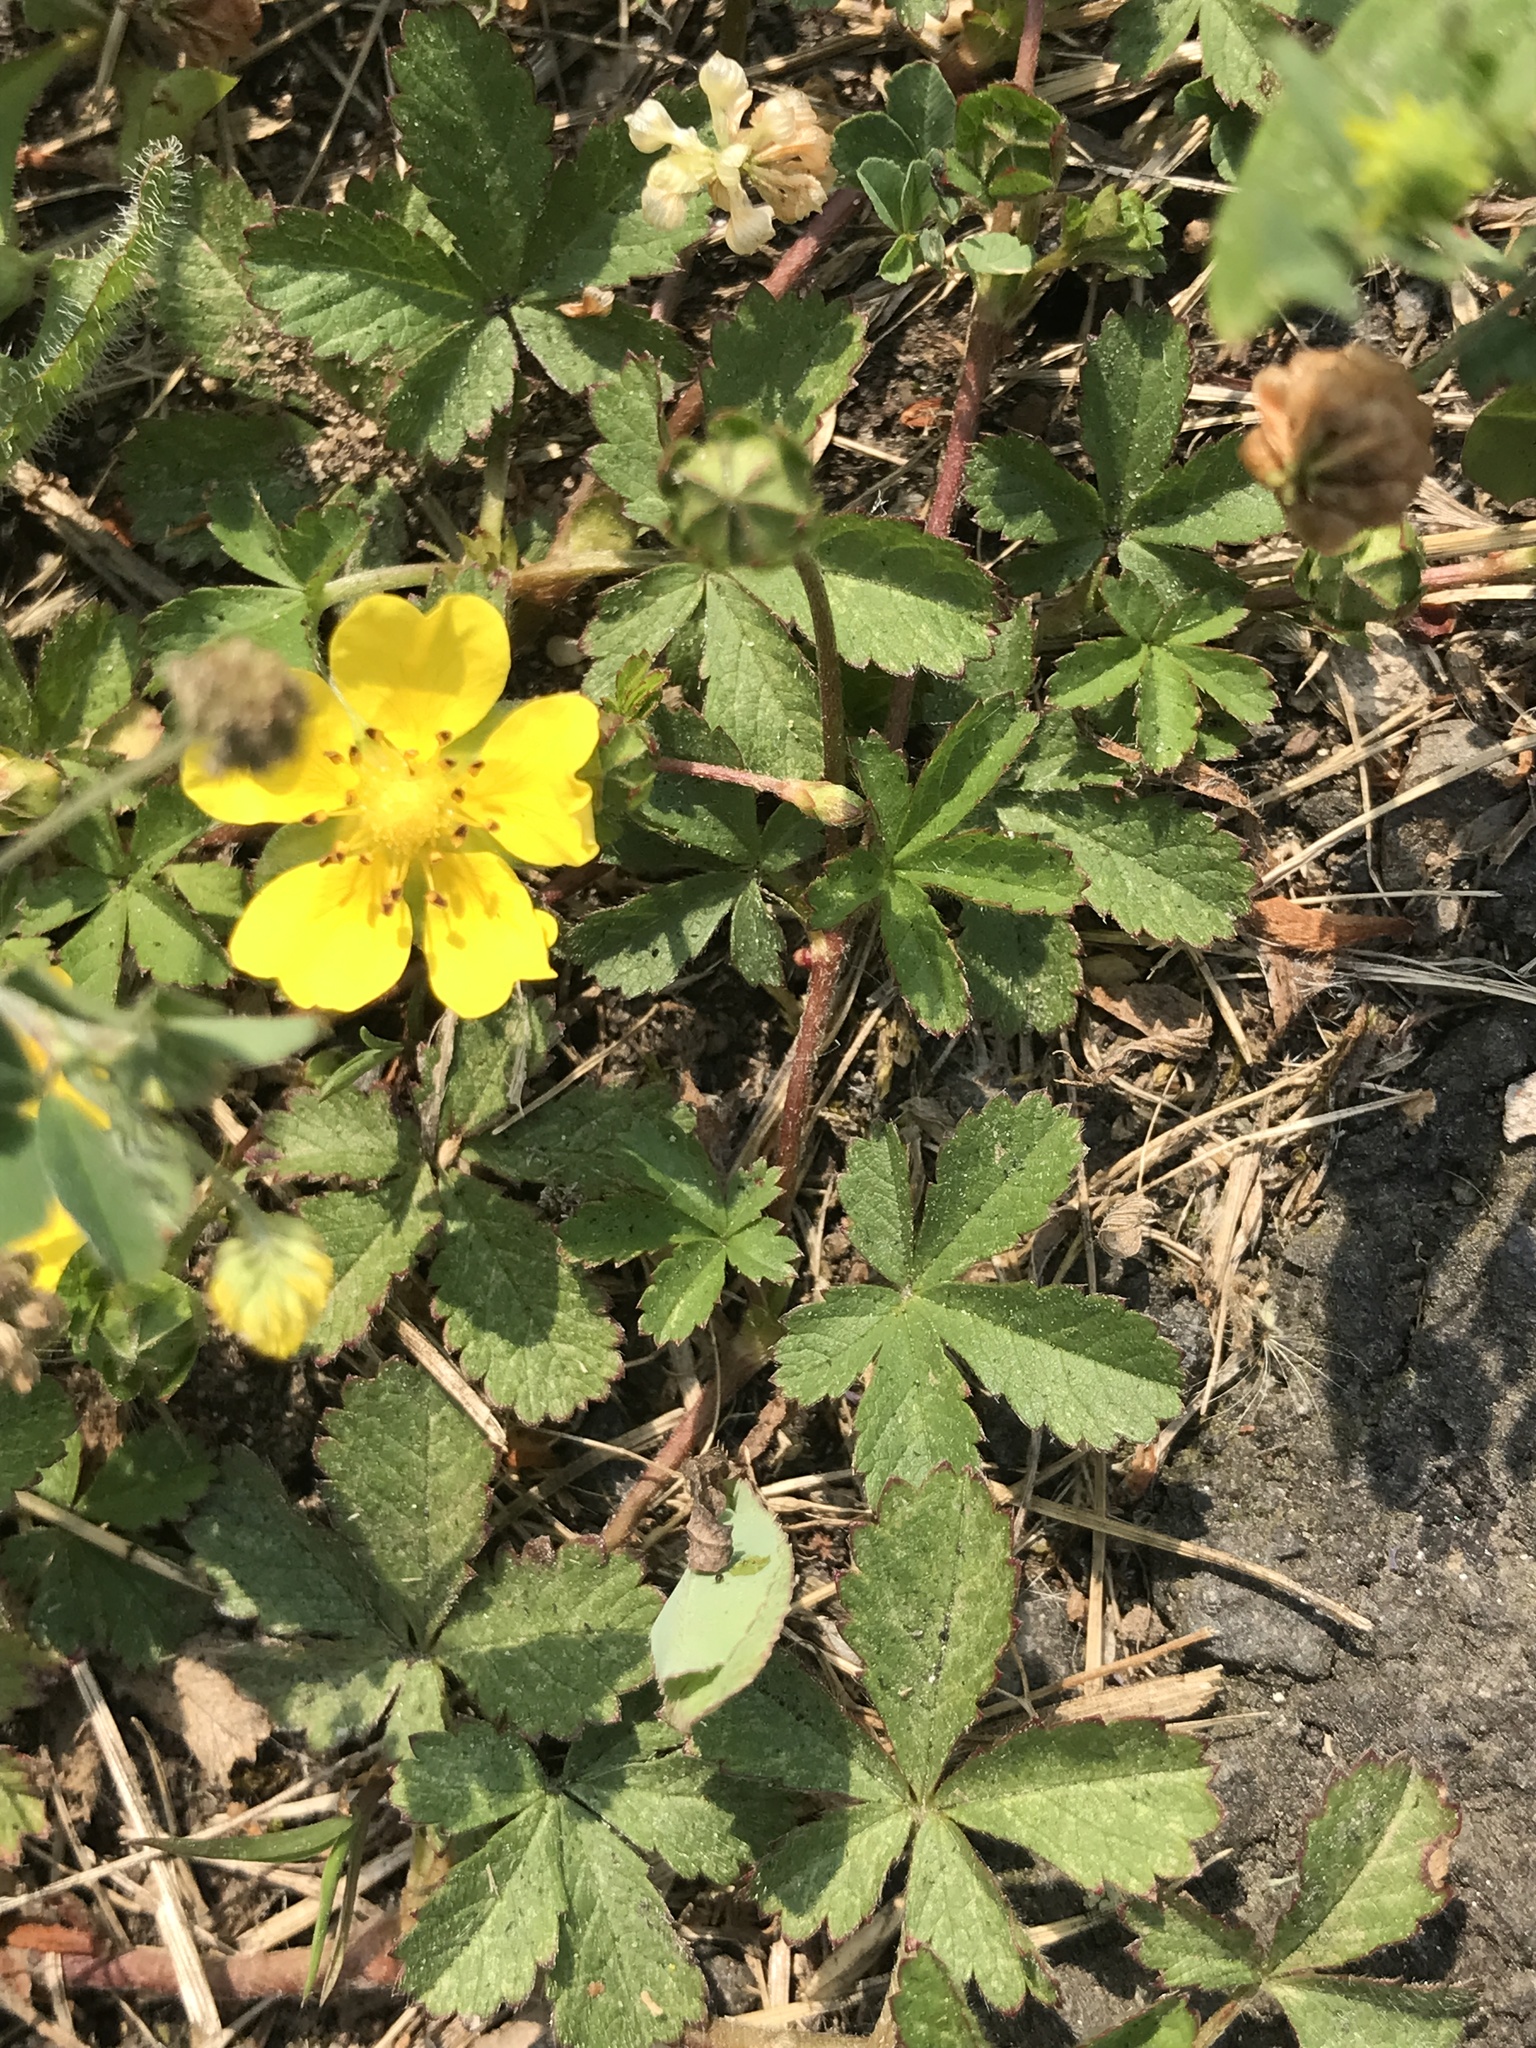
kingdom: Plantae
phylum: Tracheophyta
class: Magnoliopsida
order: Rosales
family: Rosaceae
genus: Potentilla
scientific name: Potentilla reptans
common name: Creeping cinquefoil
